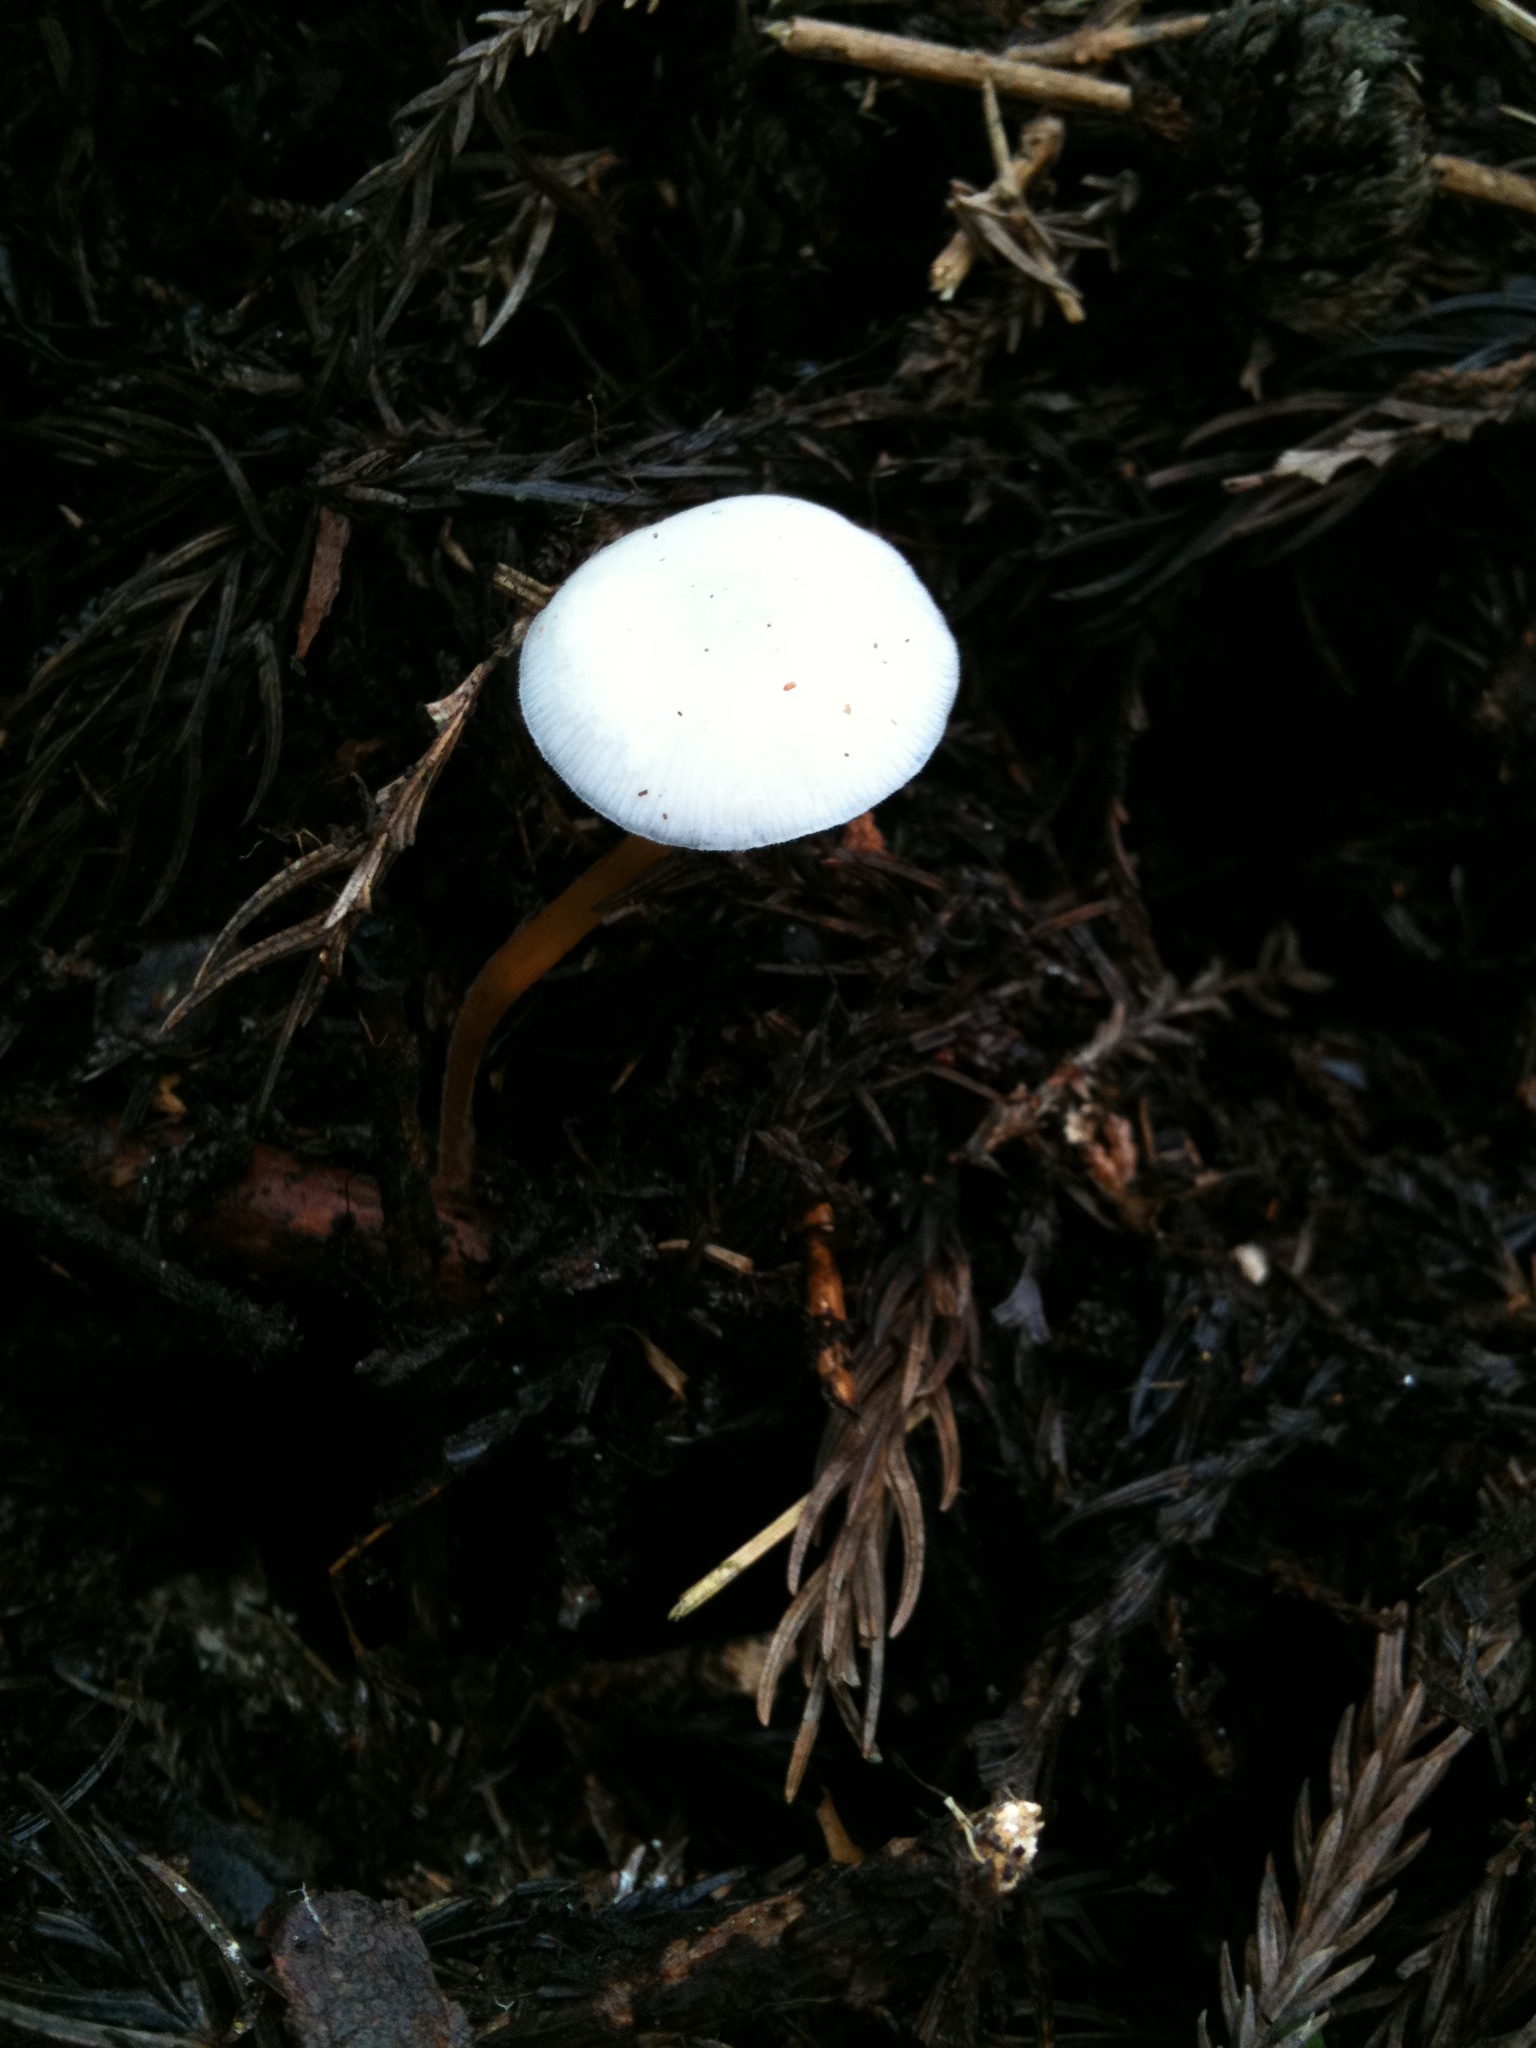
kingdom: Fungi
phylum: Basidiomycota
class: Agaricomycetes
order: Agaricales
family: Physalacriaceae
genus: Strobilurus
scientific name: Strobilurus ohshimae
